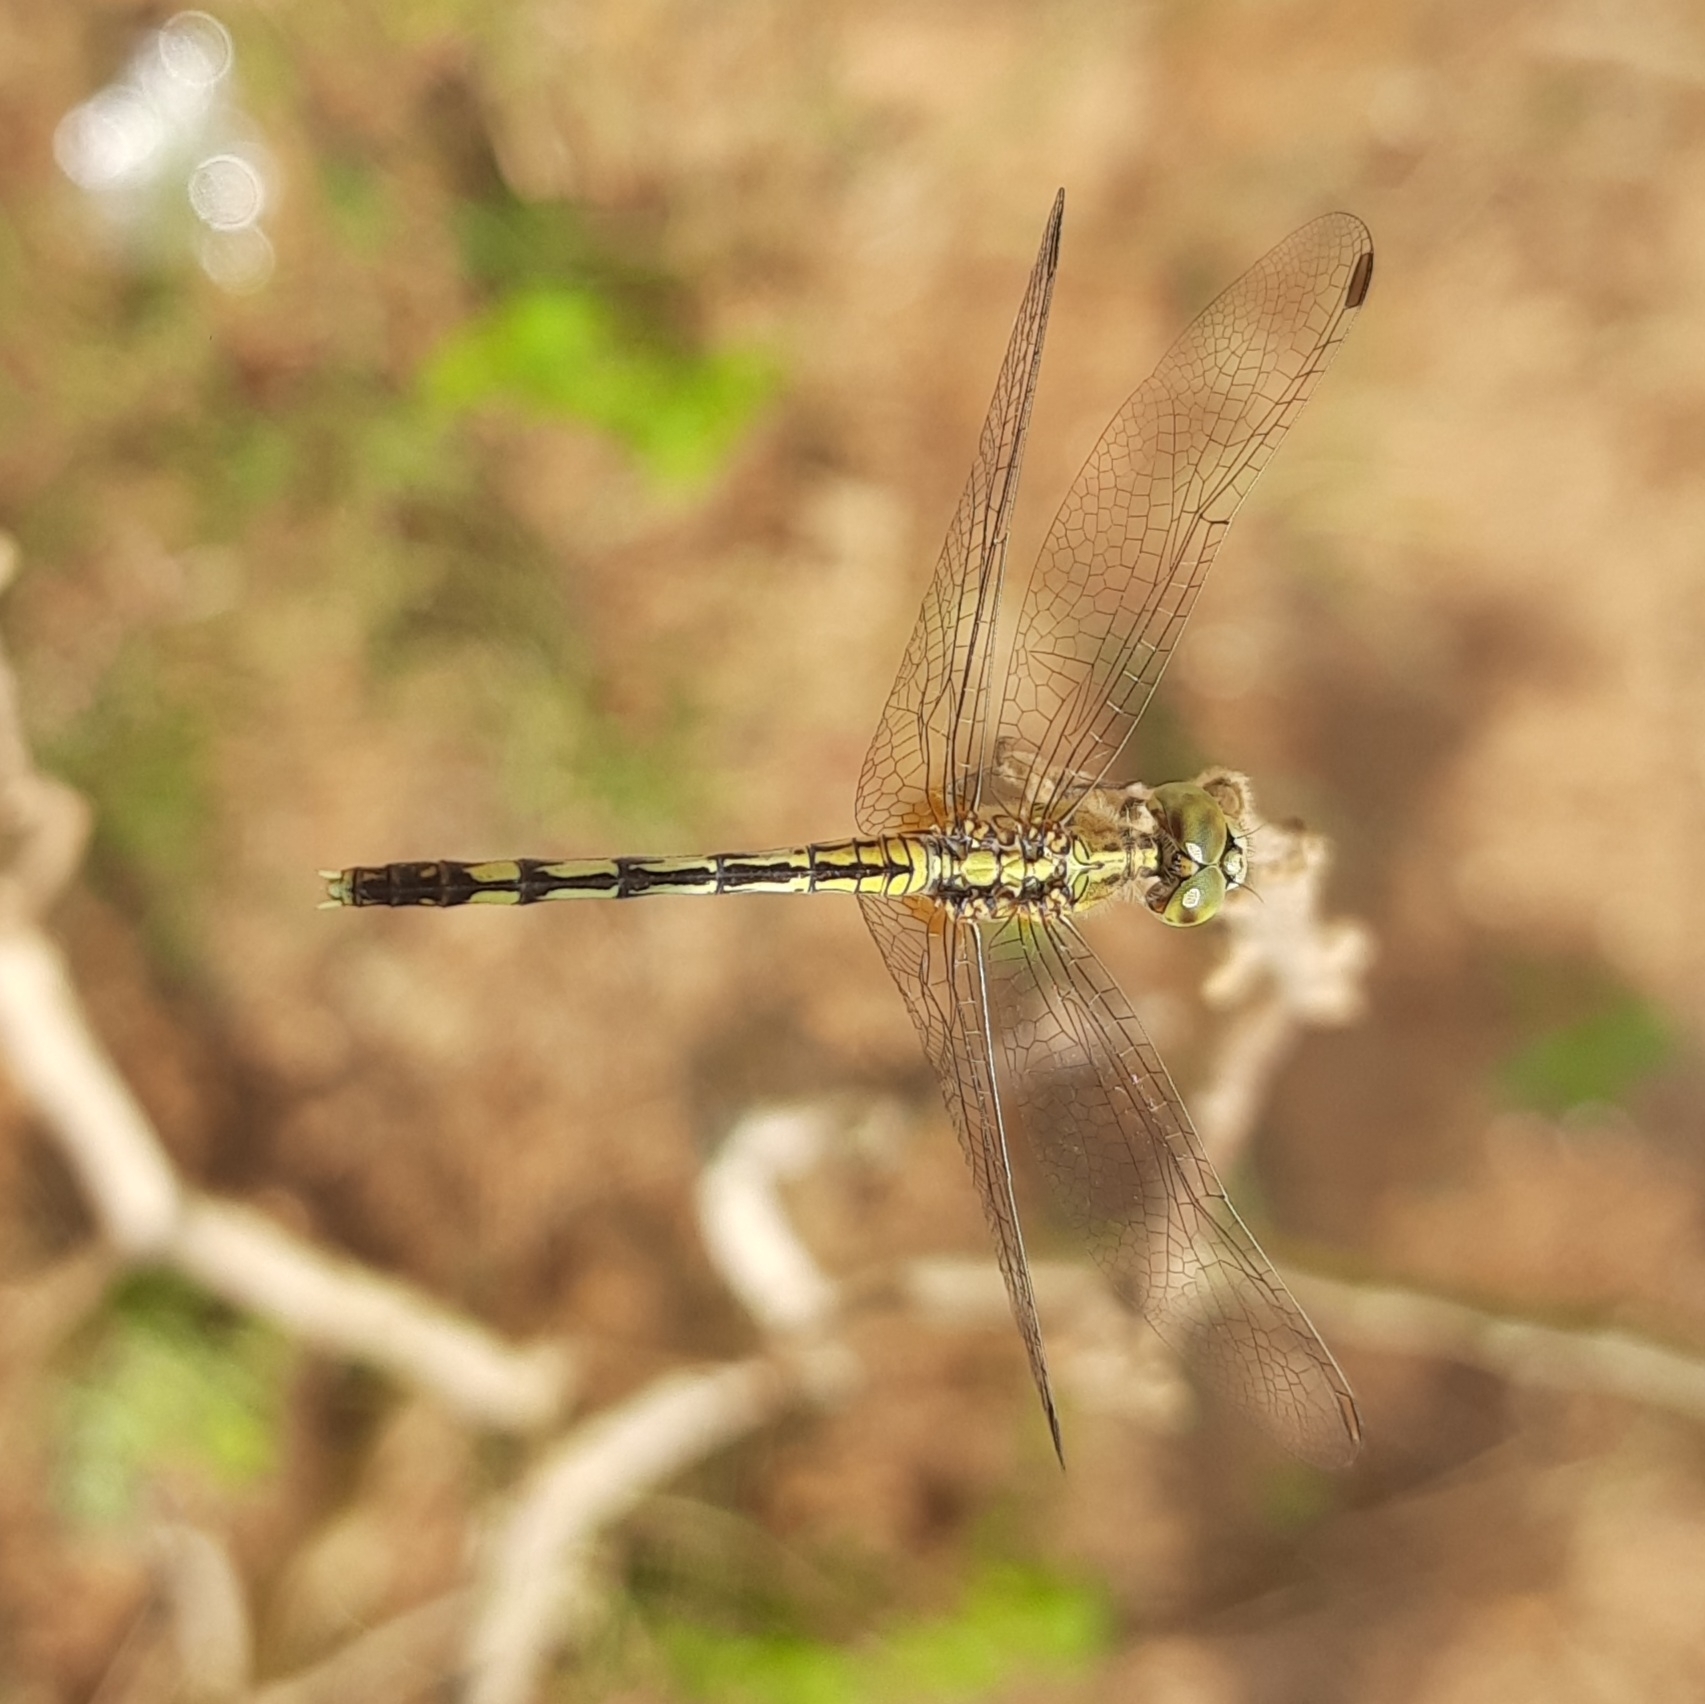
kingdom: Animalia
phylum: Arthropoda
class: Insecta
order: Odonata
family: Libellulidae
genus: Diplacodes
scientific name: Diplacodes trivialis
